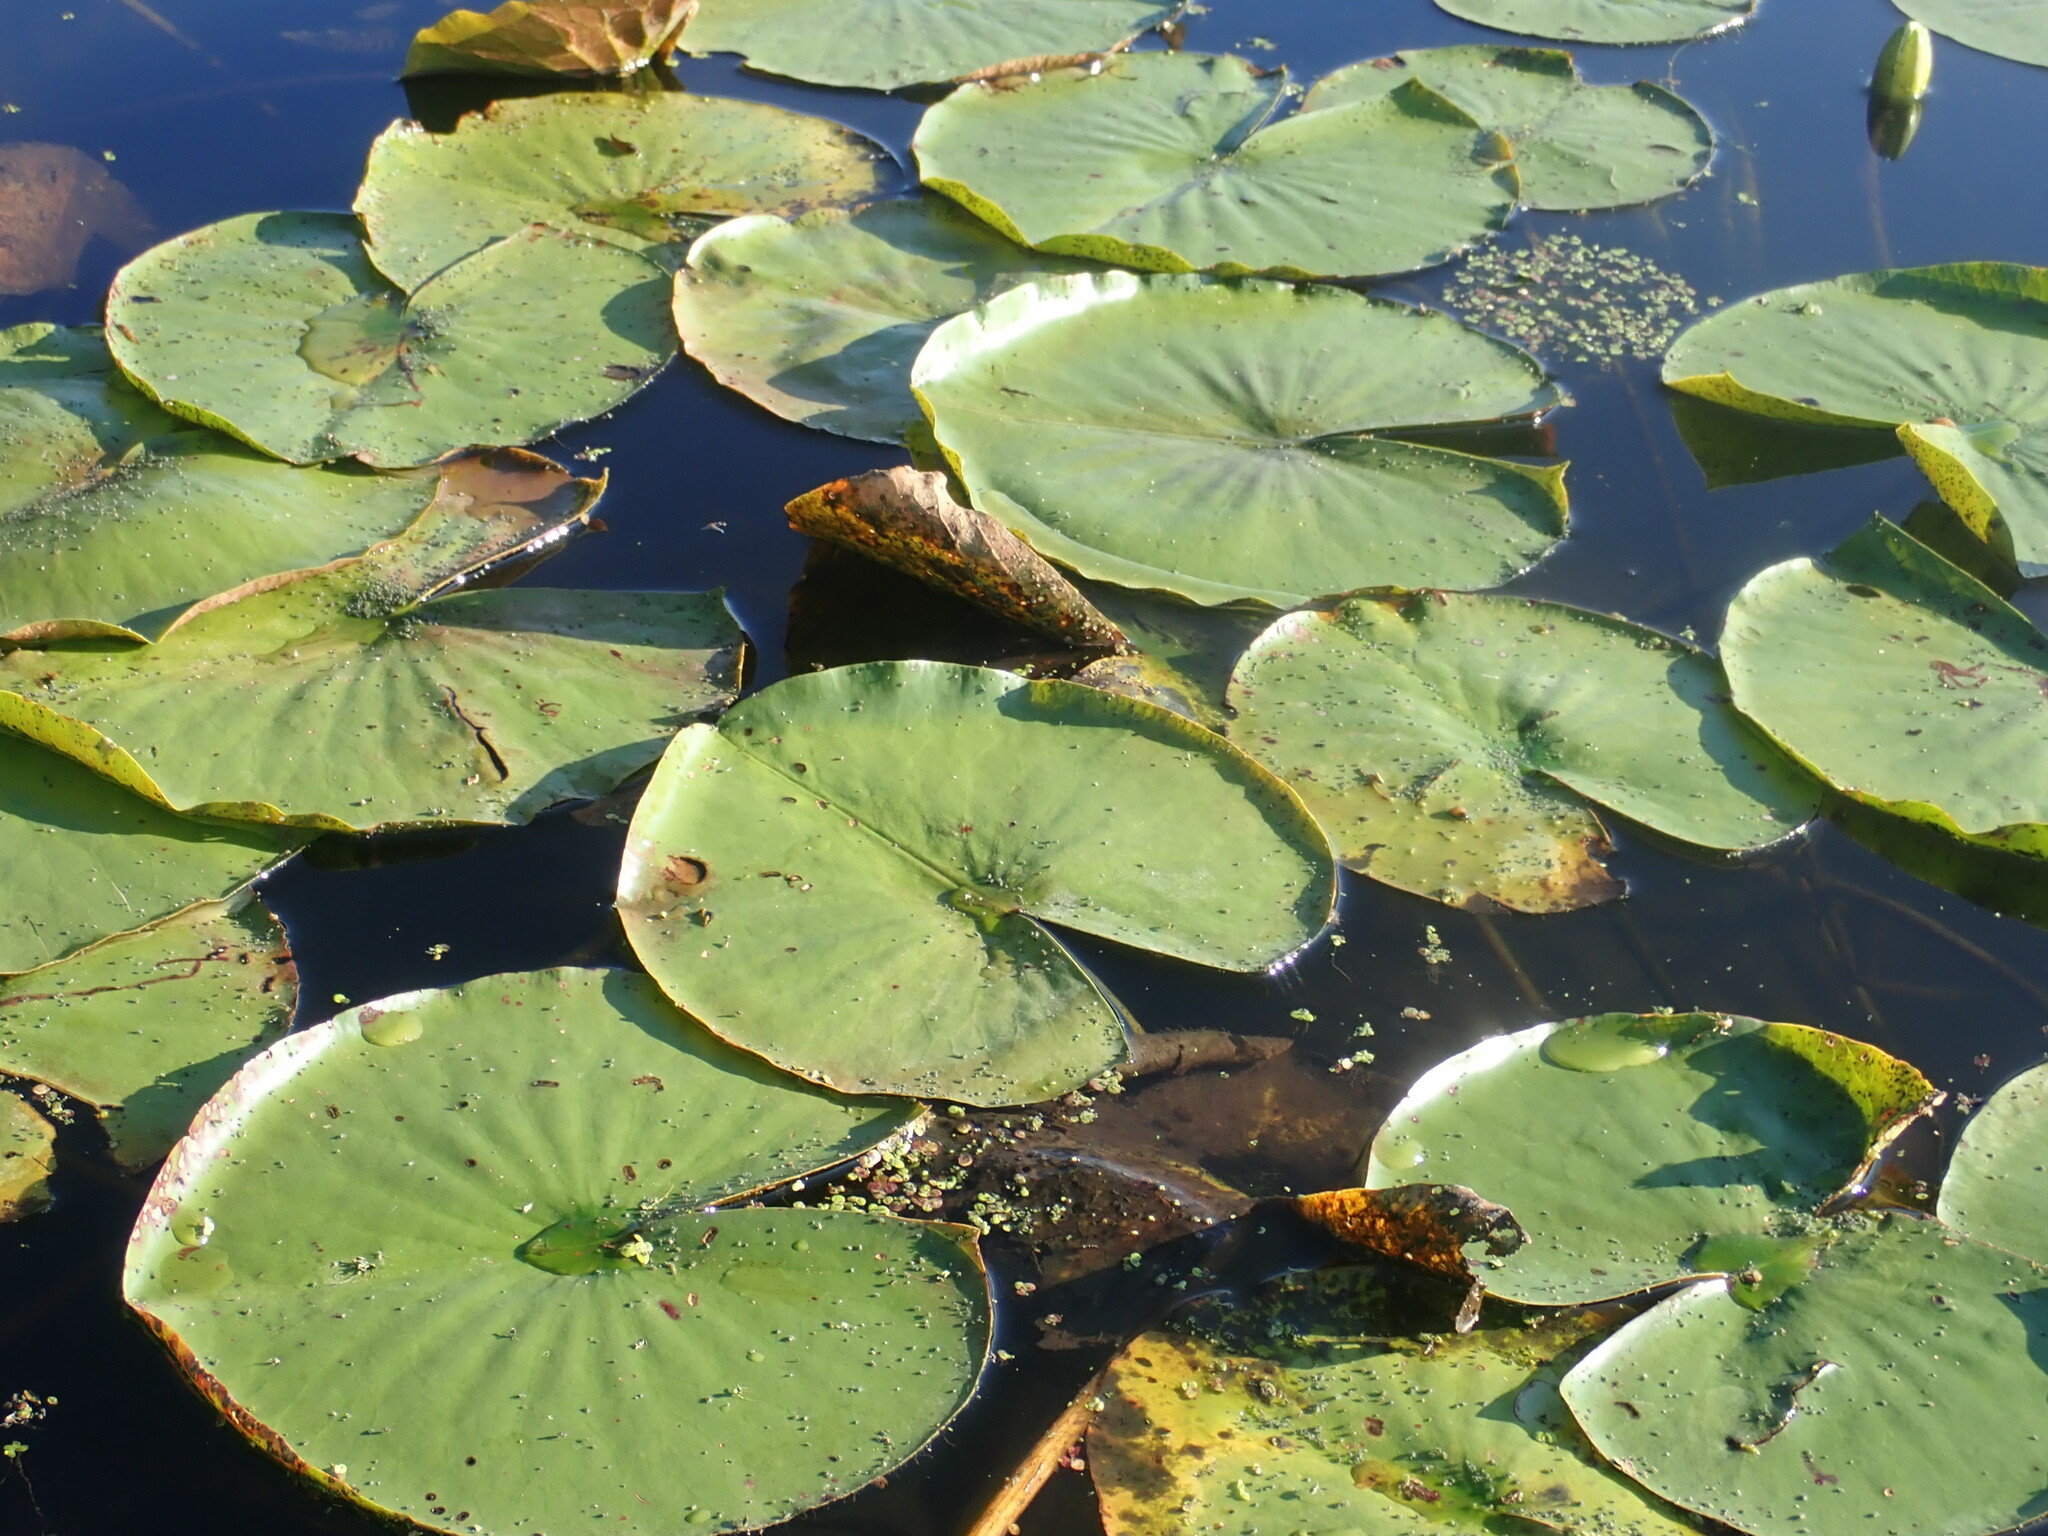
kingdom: Plantae
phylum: Tracheophyta
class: Magnoliopsida
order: Nymphaeales
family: Nymphaeaceae
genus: Nymphaea
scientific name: Nymphaea odorata
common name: Fragrant water-lily
